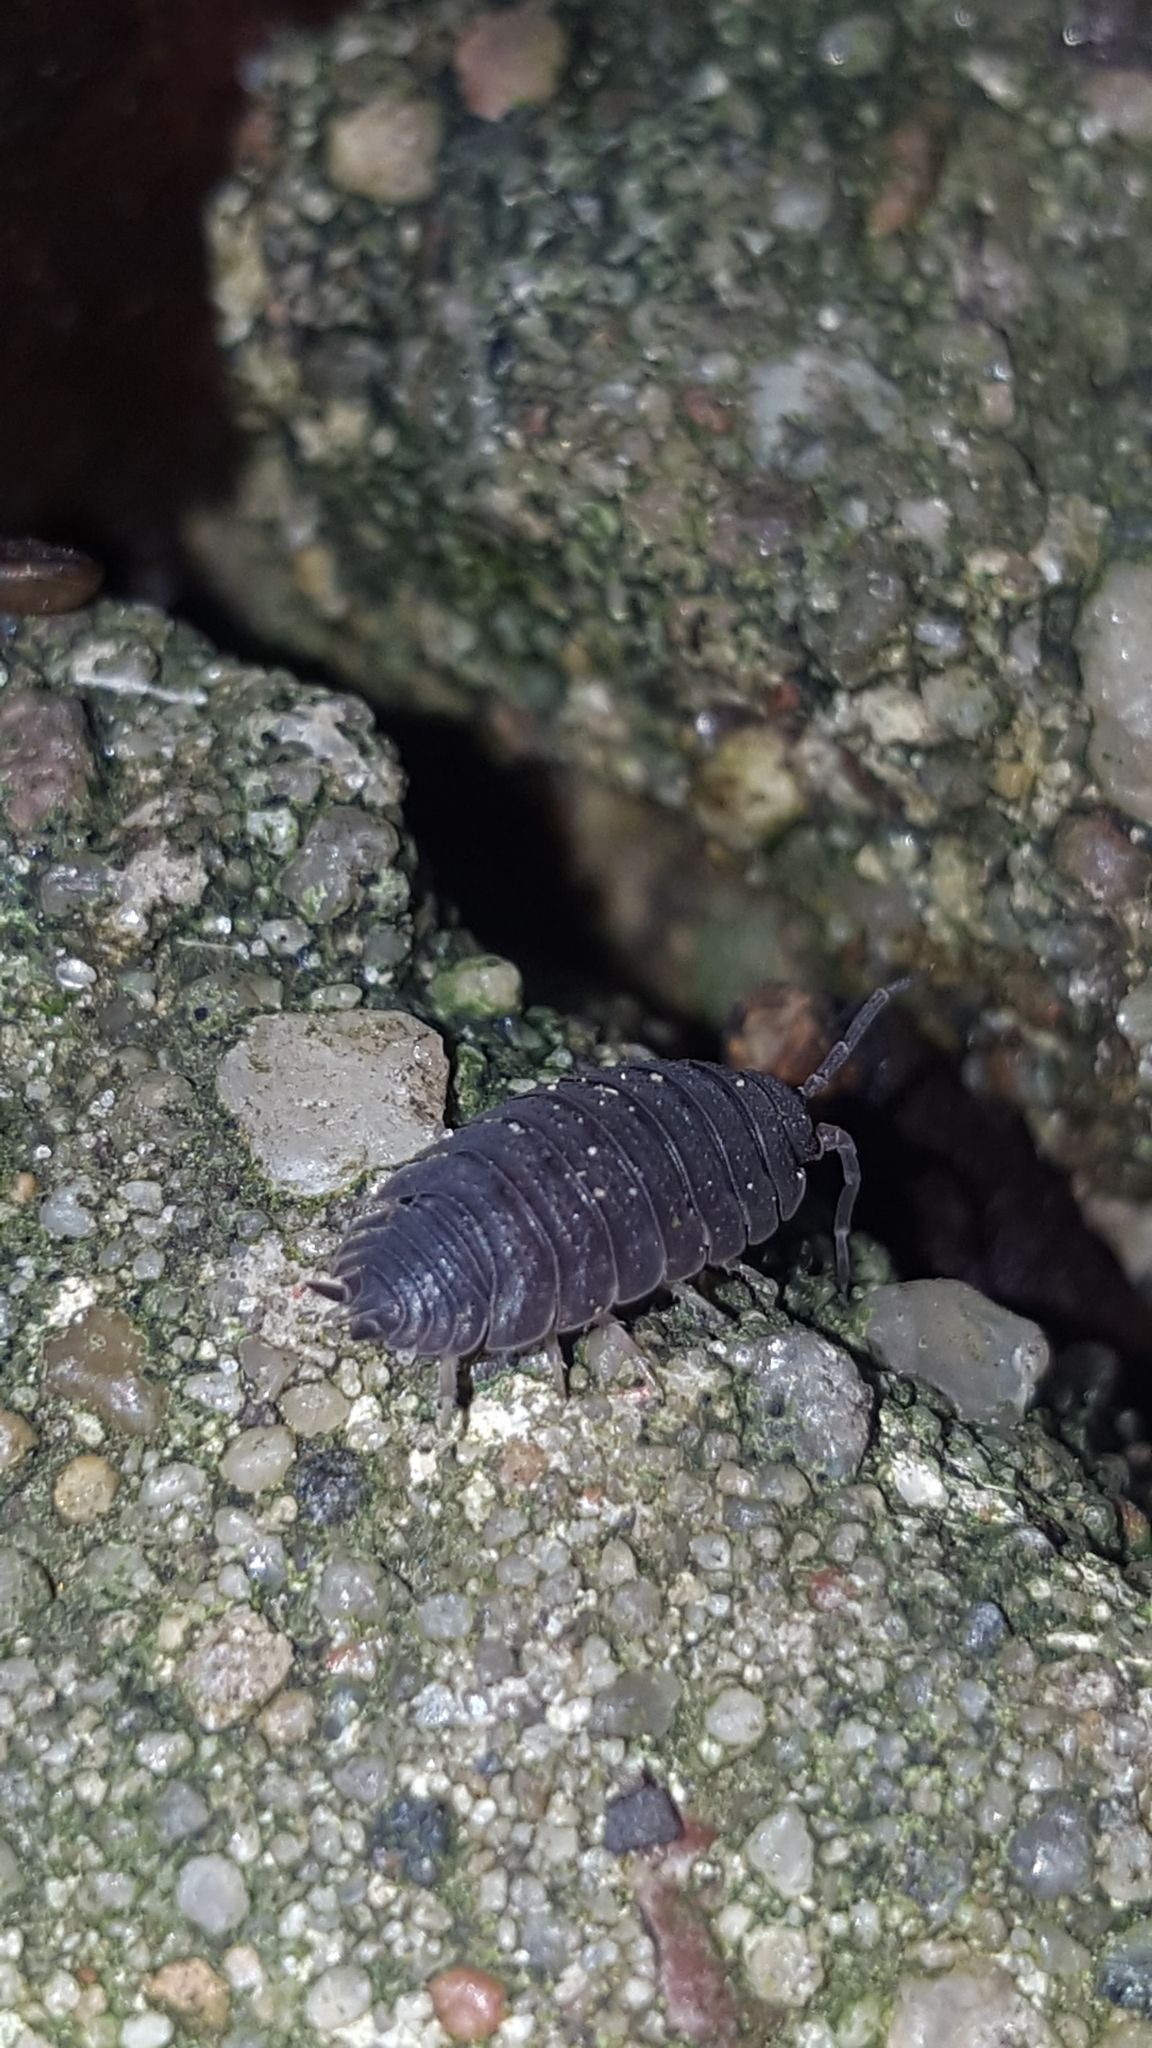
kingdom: Animalia
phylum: Arthropoda
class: Malacostraca
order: Isopoda
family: Porcellionidae
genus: Porcellio
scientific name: Porcellio scaber
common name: Common rough woodlouse
